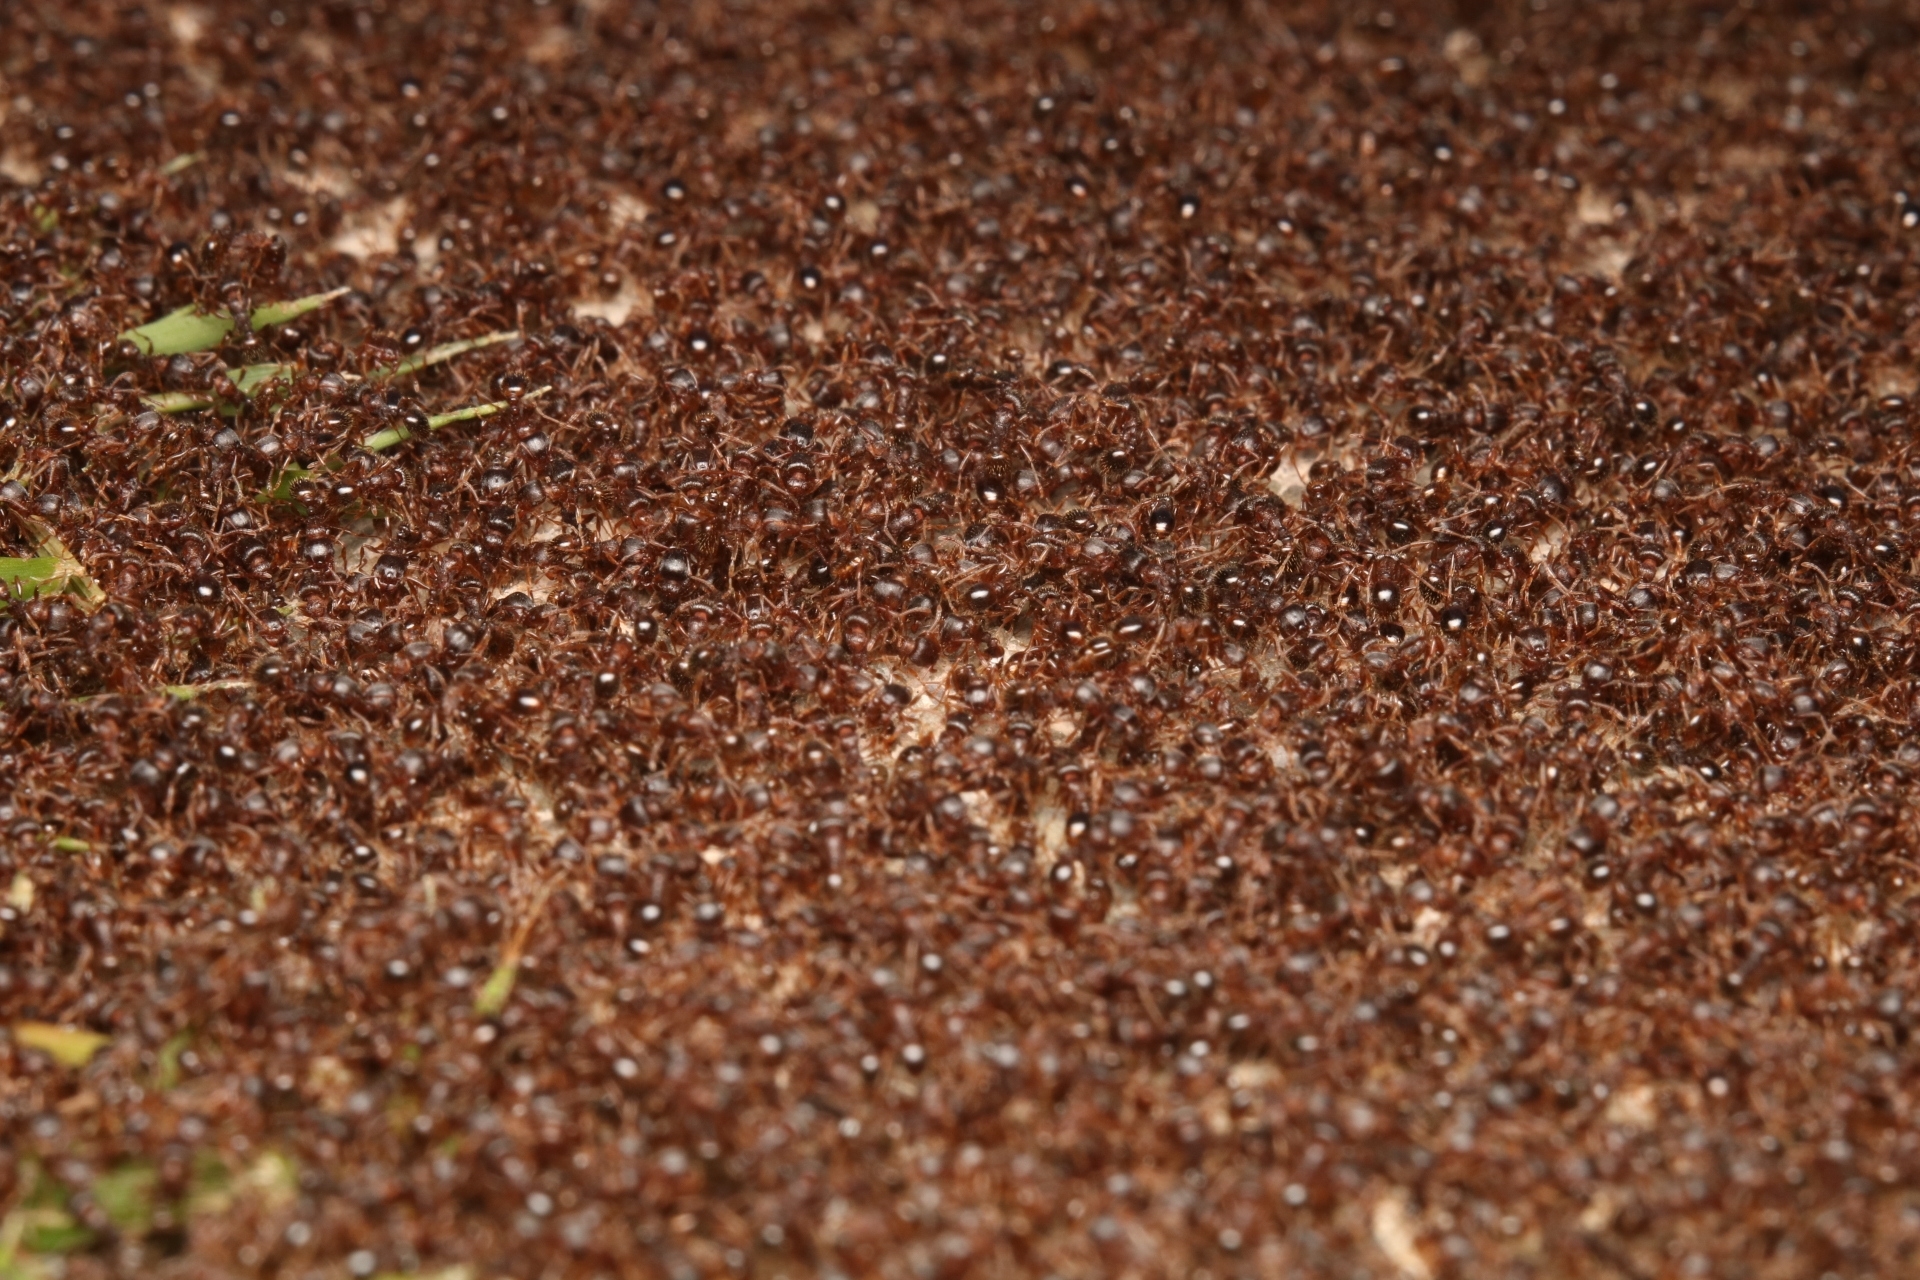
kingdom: Animalia
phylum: Arthropoda
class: Insecta
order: Hymenoptera
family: Formicidae
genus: Tetramorium
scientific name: Tetramorium immigrans
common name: Pavement ant
